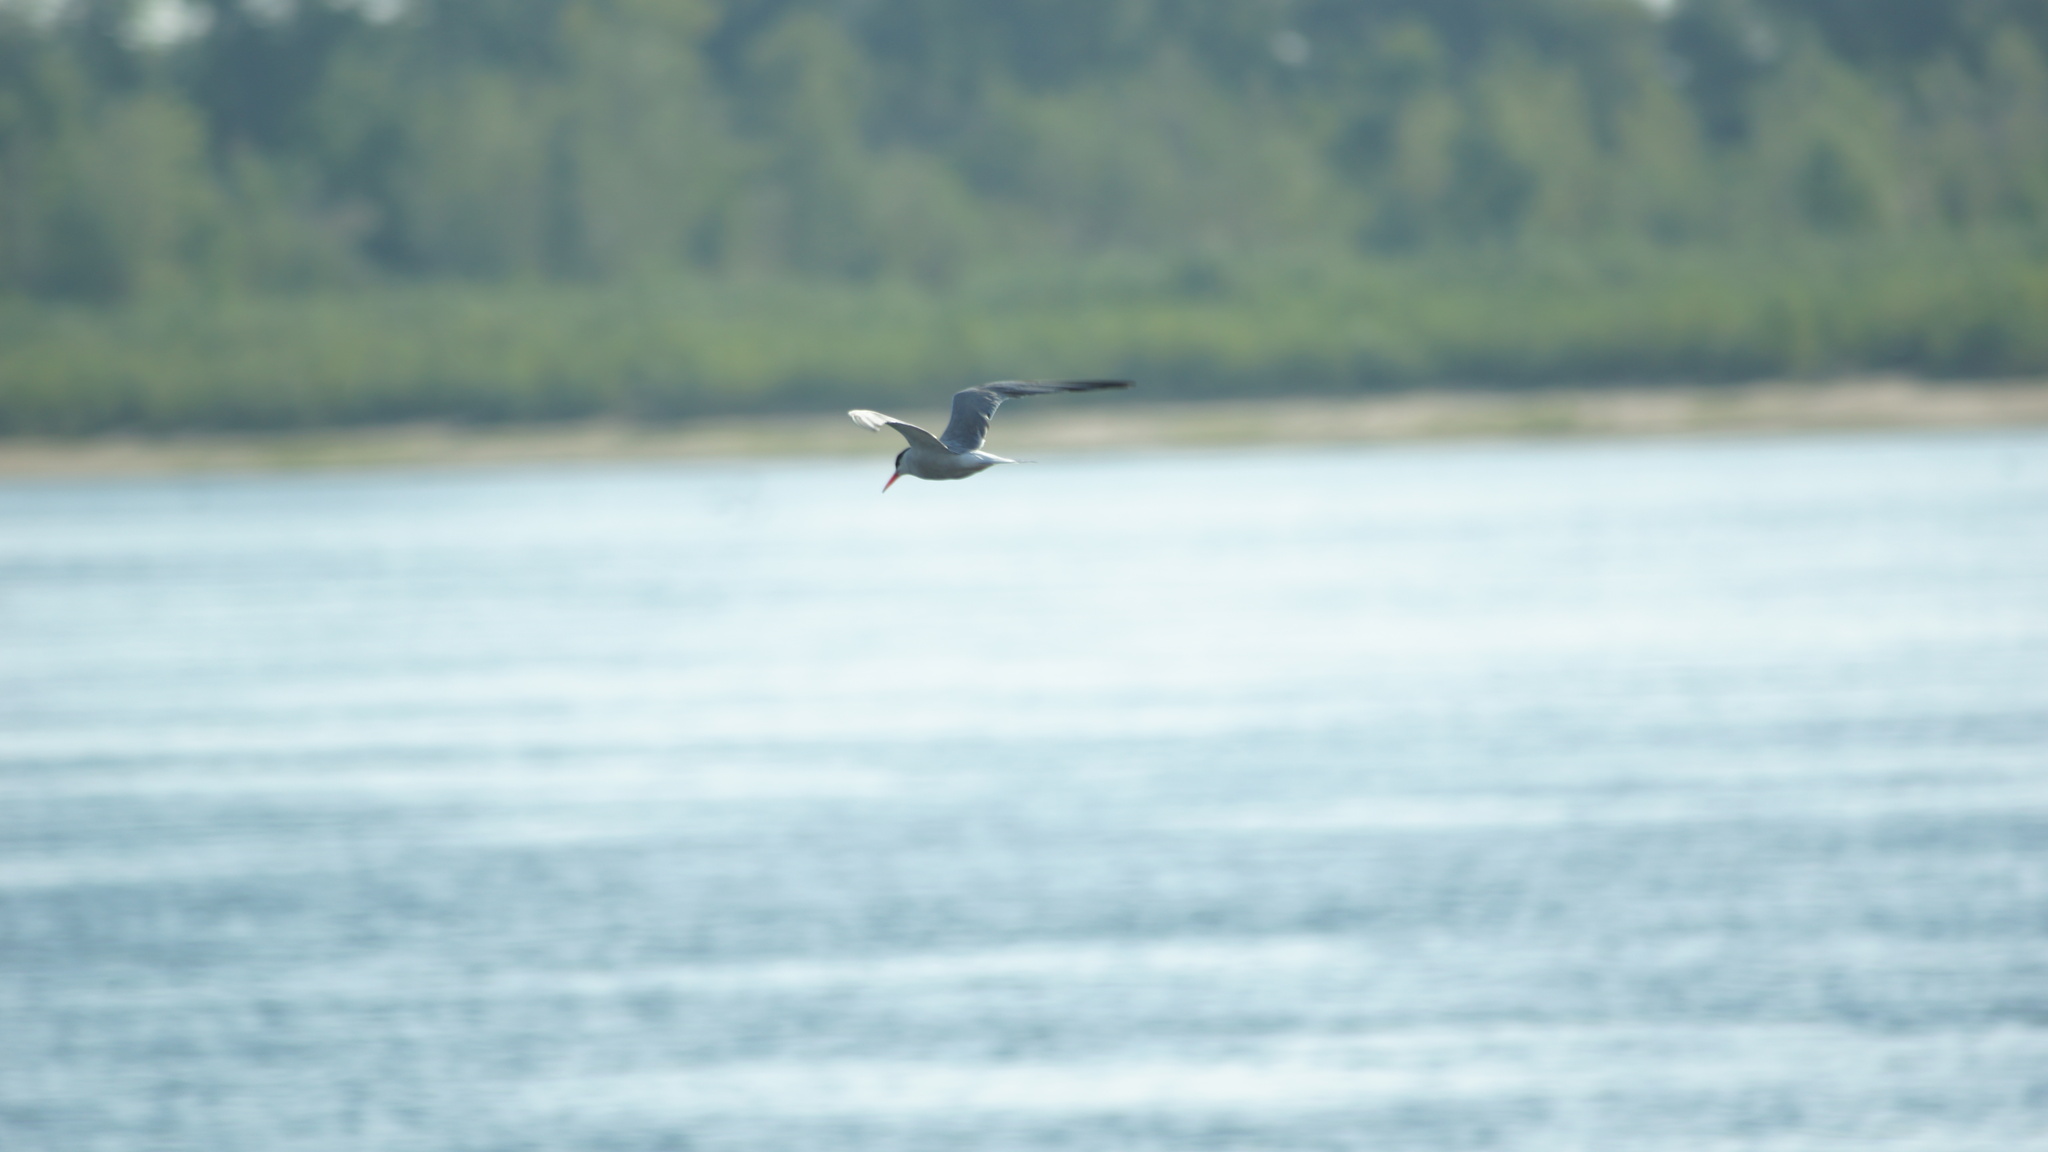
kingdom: Animalia
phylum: Chordata
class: Aves
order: Charadriiformes
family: Laridae
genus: Sterna
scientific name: Sterna hirundo
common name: Common tern
